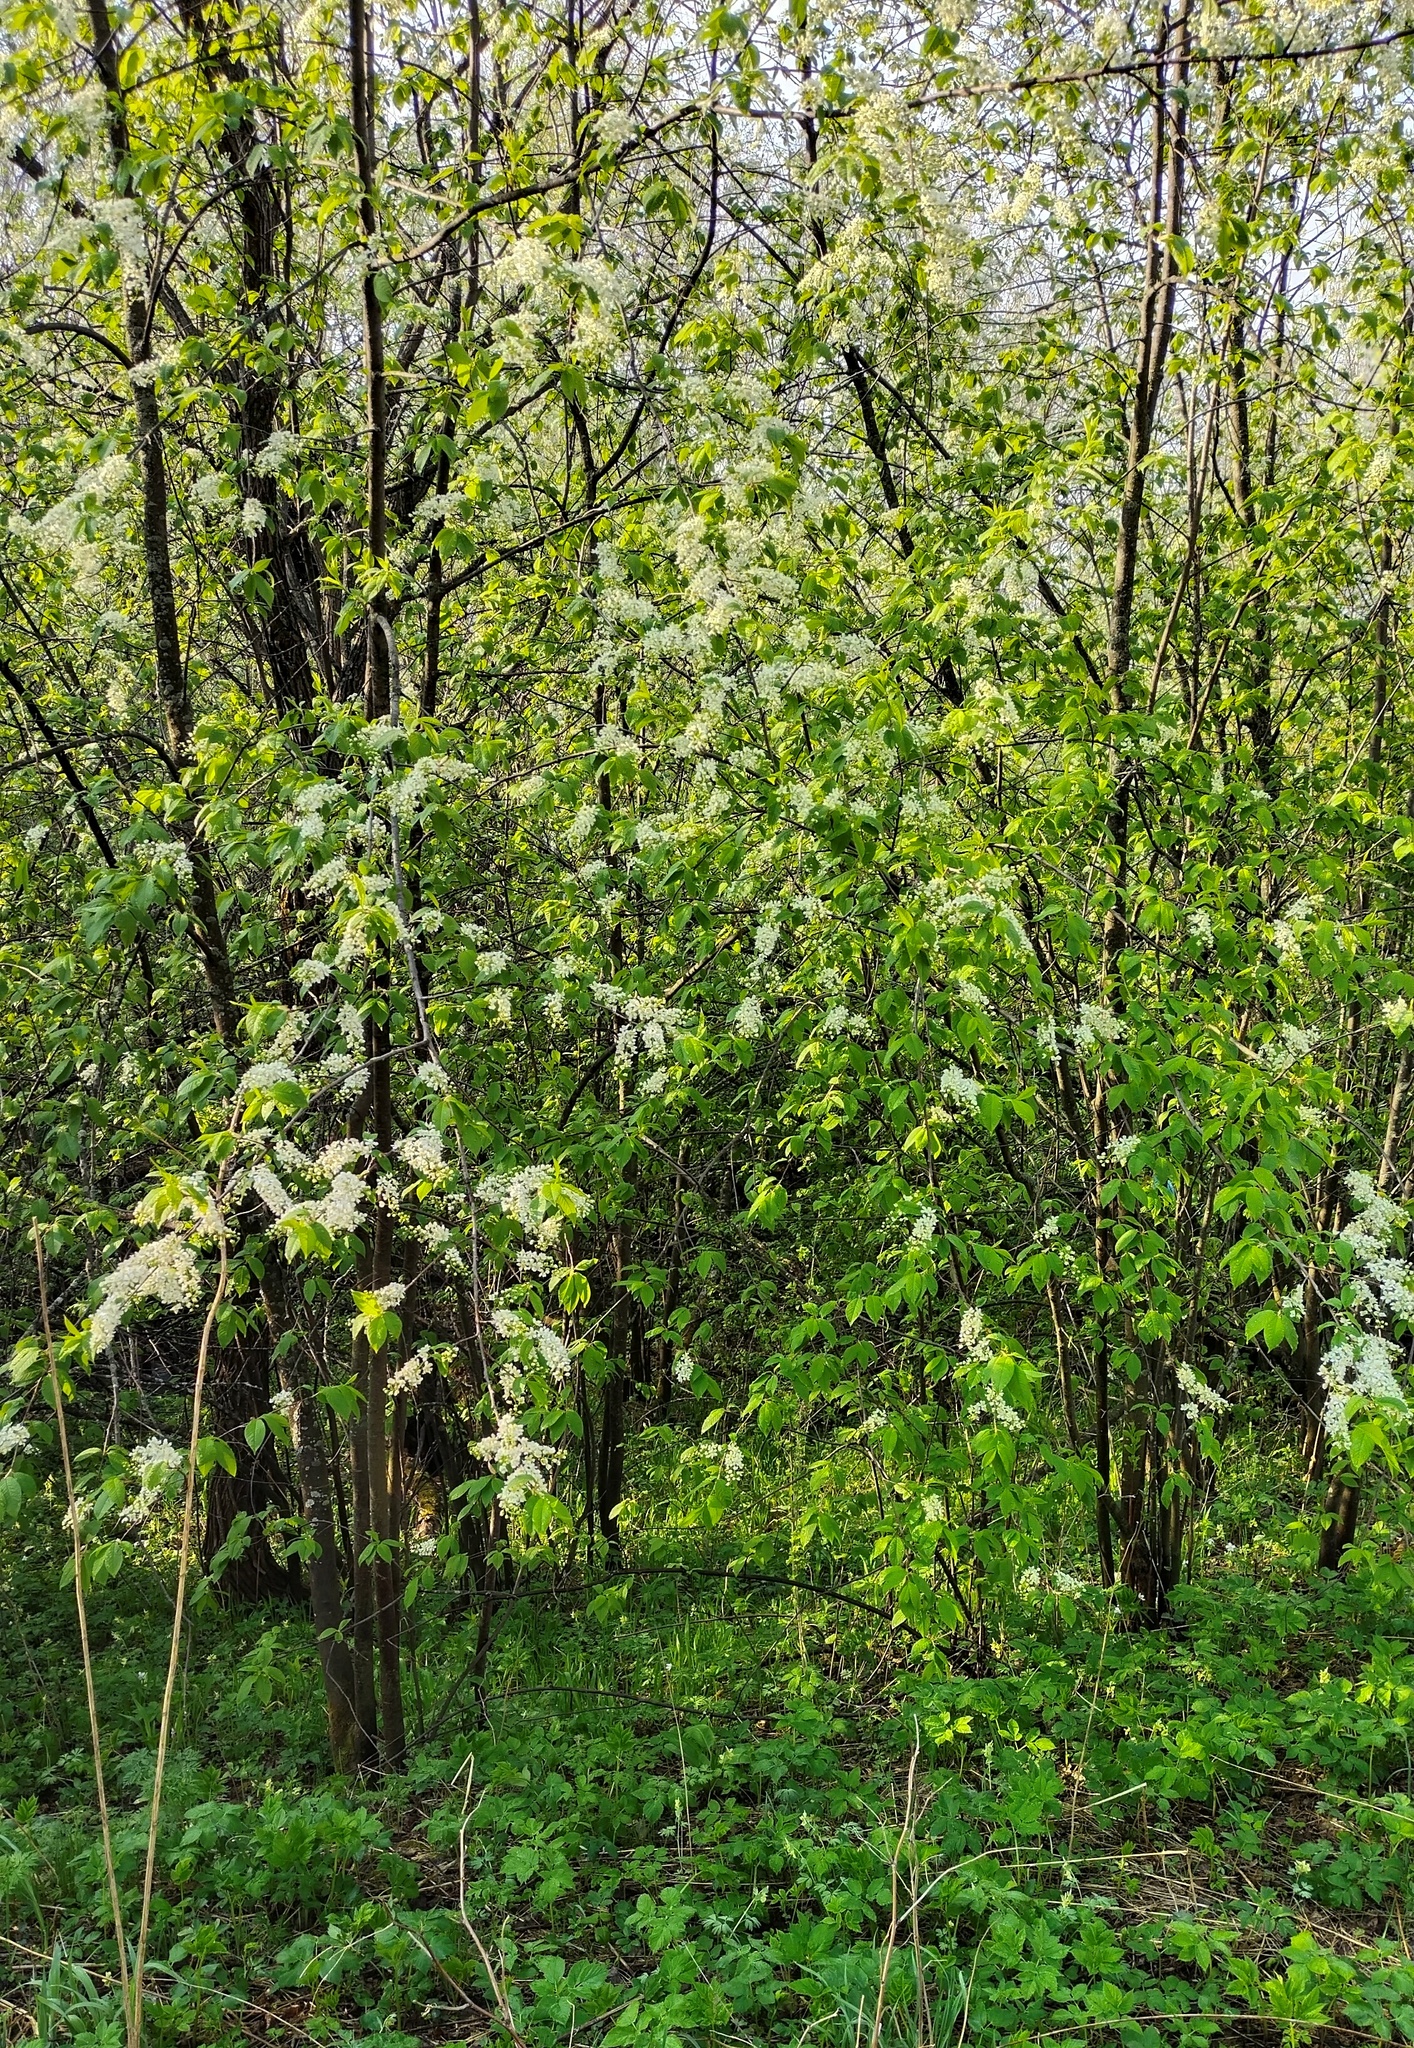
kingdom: Plantae
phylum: Tracheophyta
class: Magnoliopsida
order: Rosales
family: Rosaceae
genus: Prunus
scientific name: Prunus padus
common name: Bird cherry
